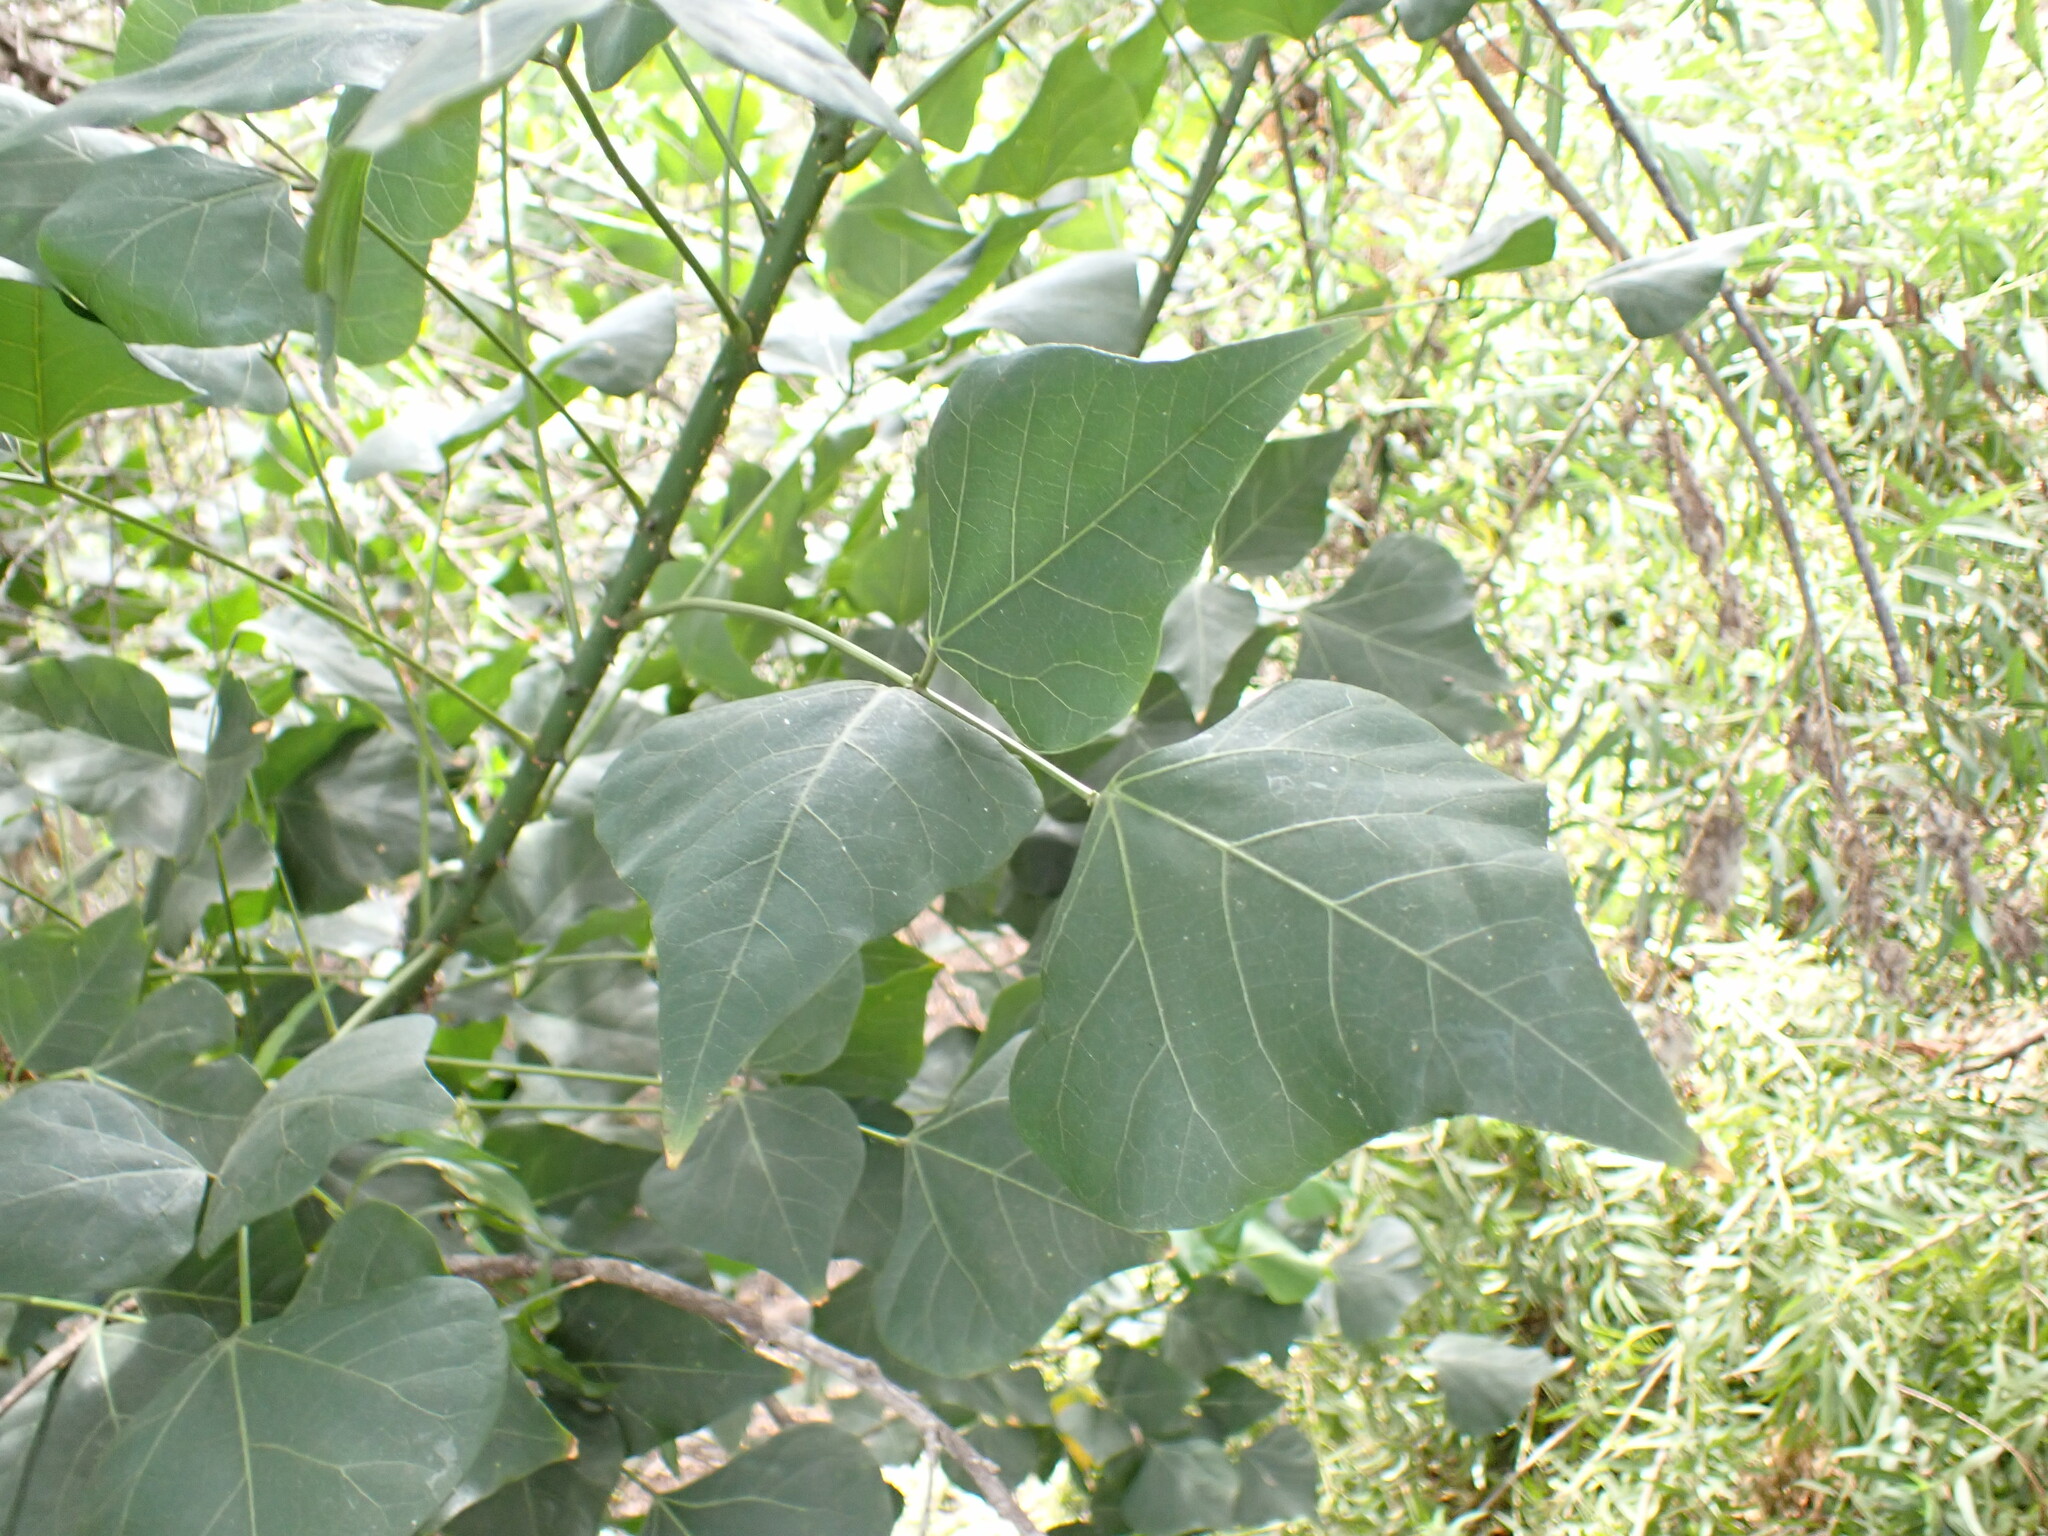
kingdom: Plantae
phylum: Tracheophyta
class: Magnoliopsida
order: Fabales
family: Fabaceae
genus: Erythrina
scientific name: Erythrina caffra
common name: Coast coral tree
